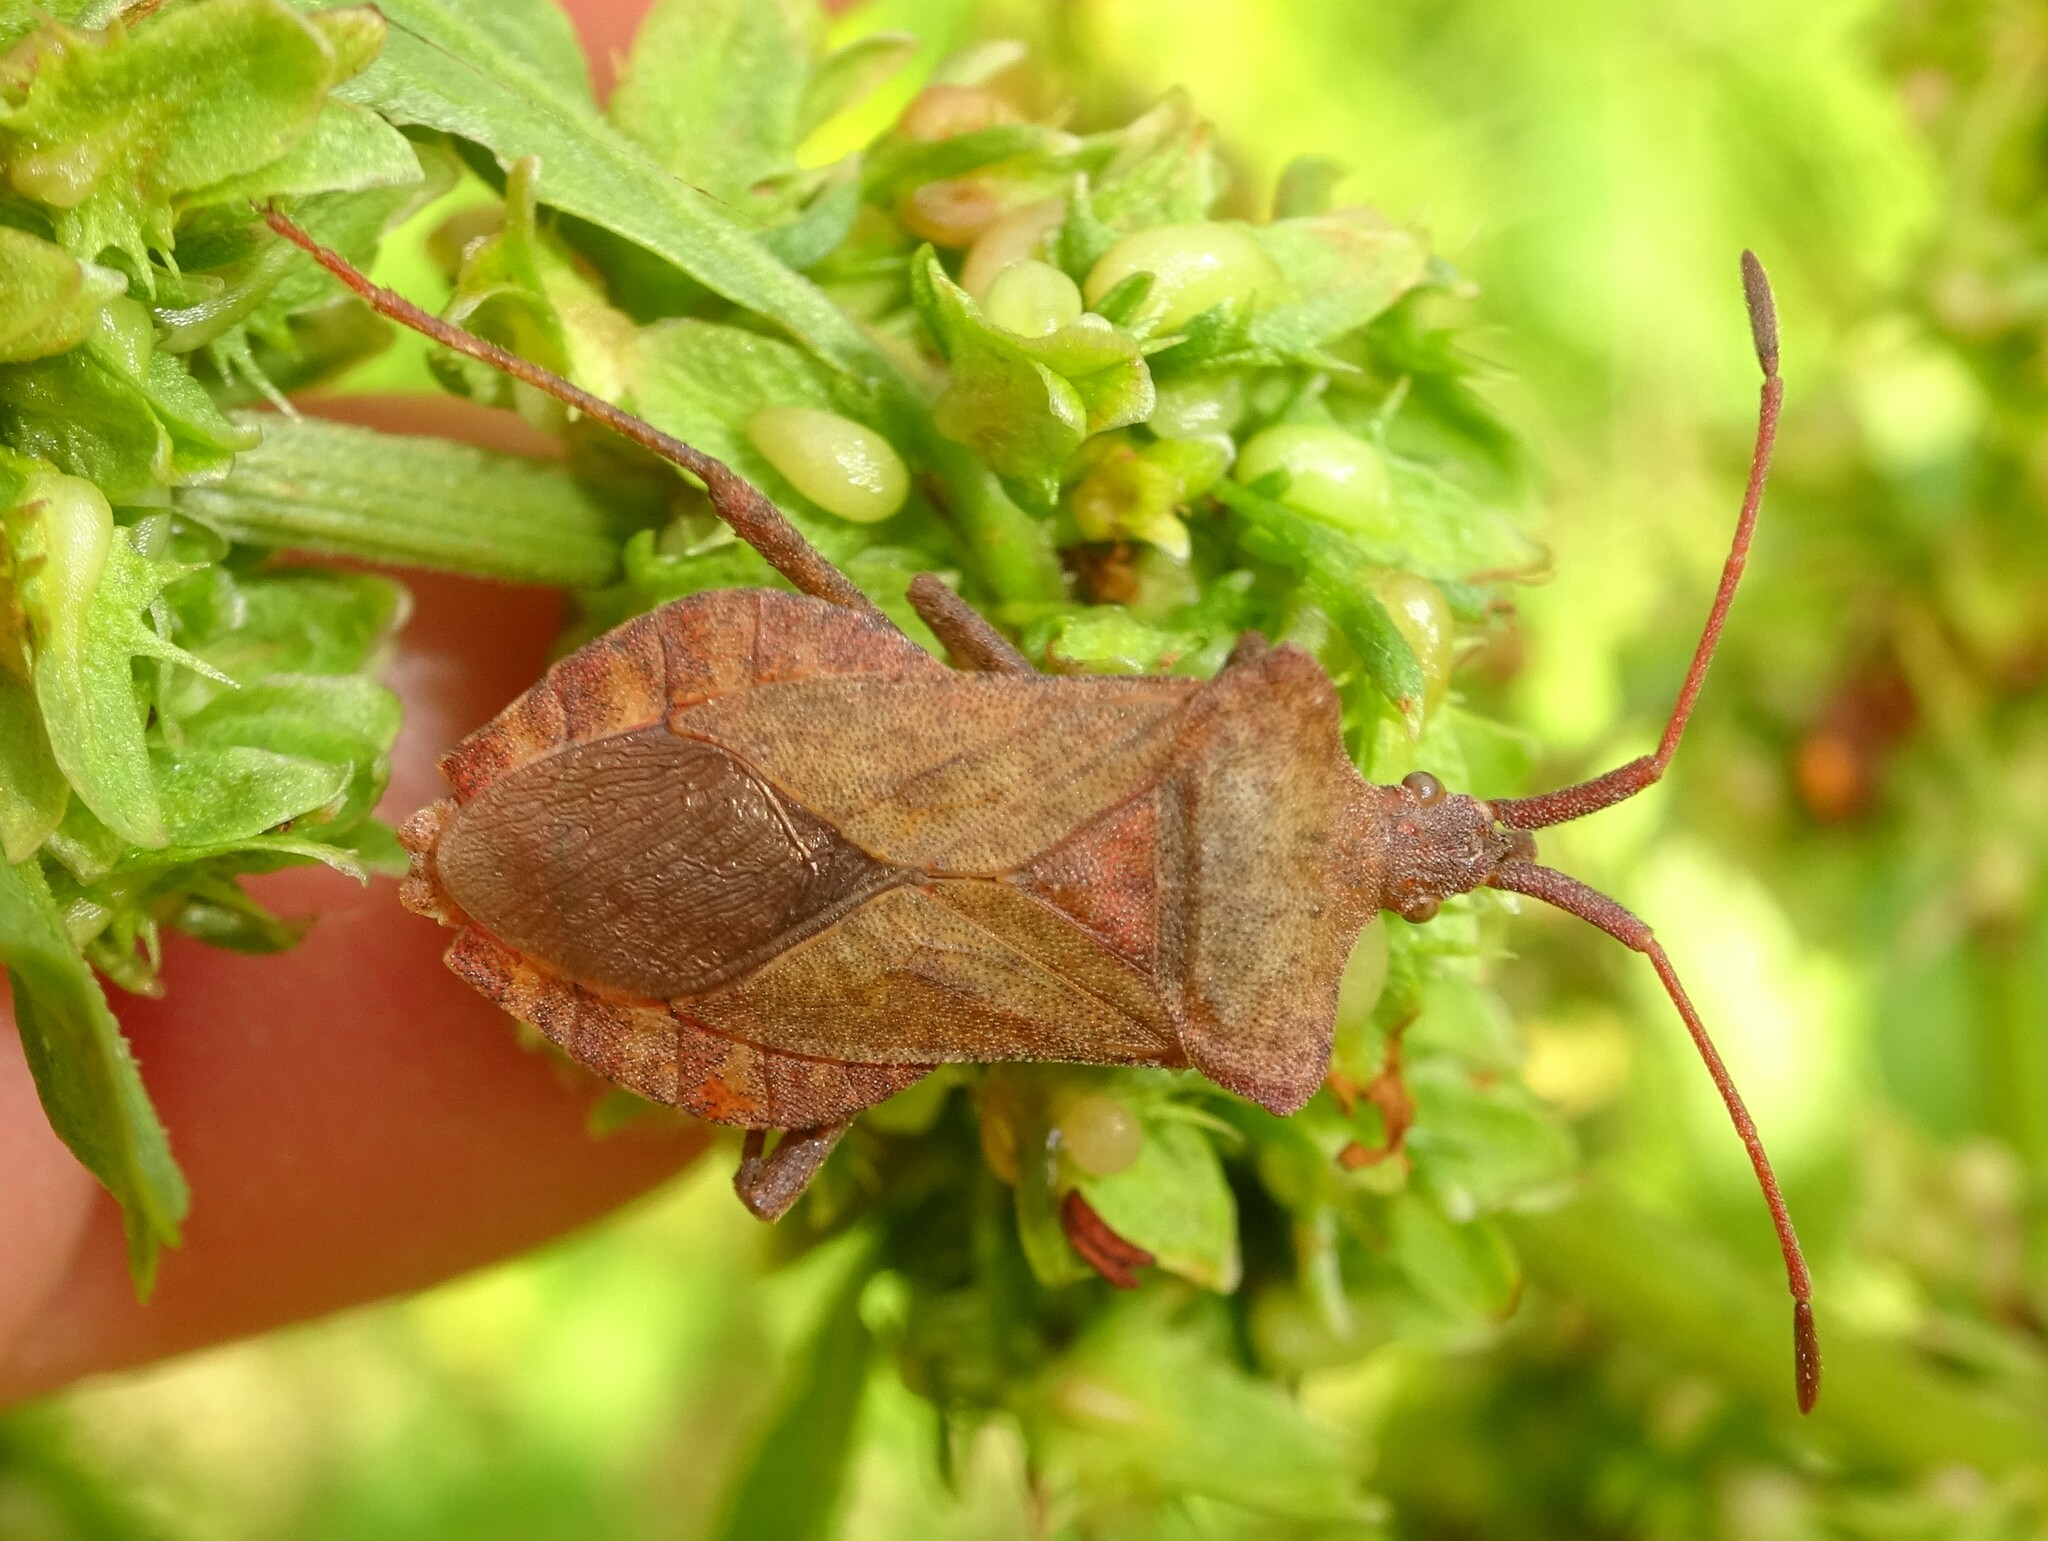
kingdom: Animalia
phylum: Arthropoda
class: Insecta
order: Hemiptera
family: Coreidae
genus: Coreus
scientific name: Coreus marginatus
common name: Dock bug
